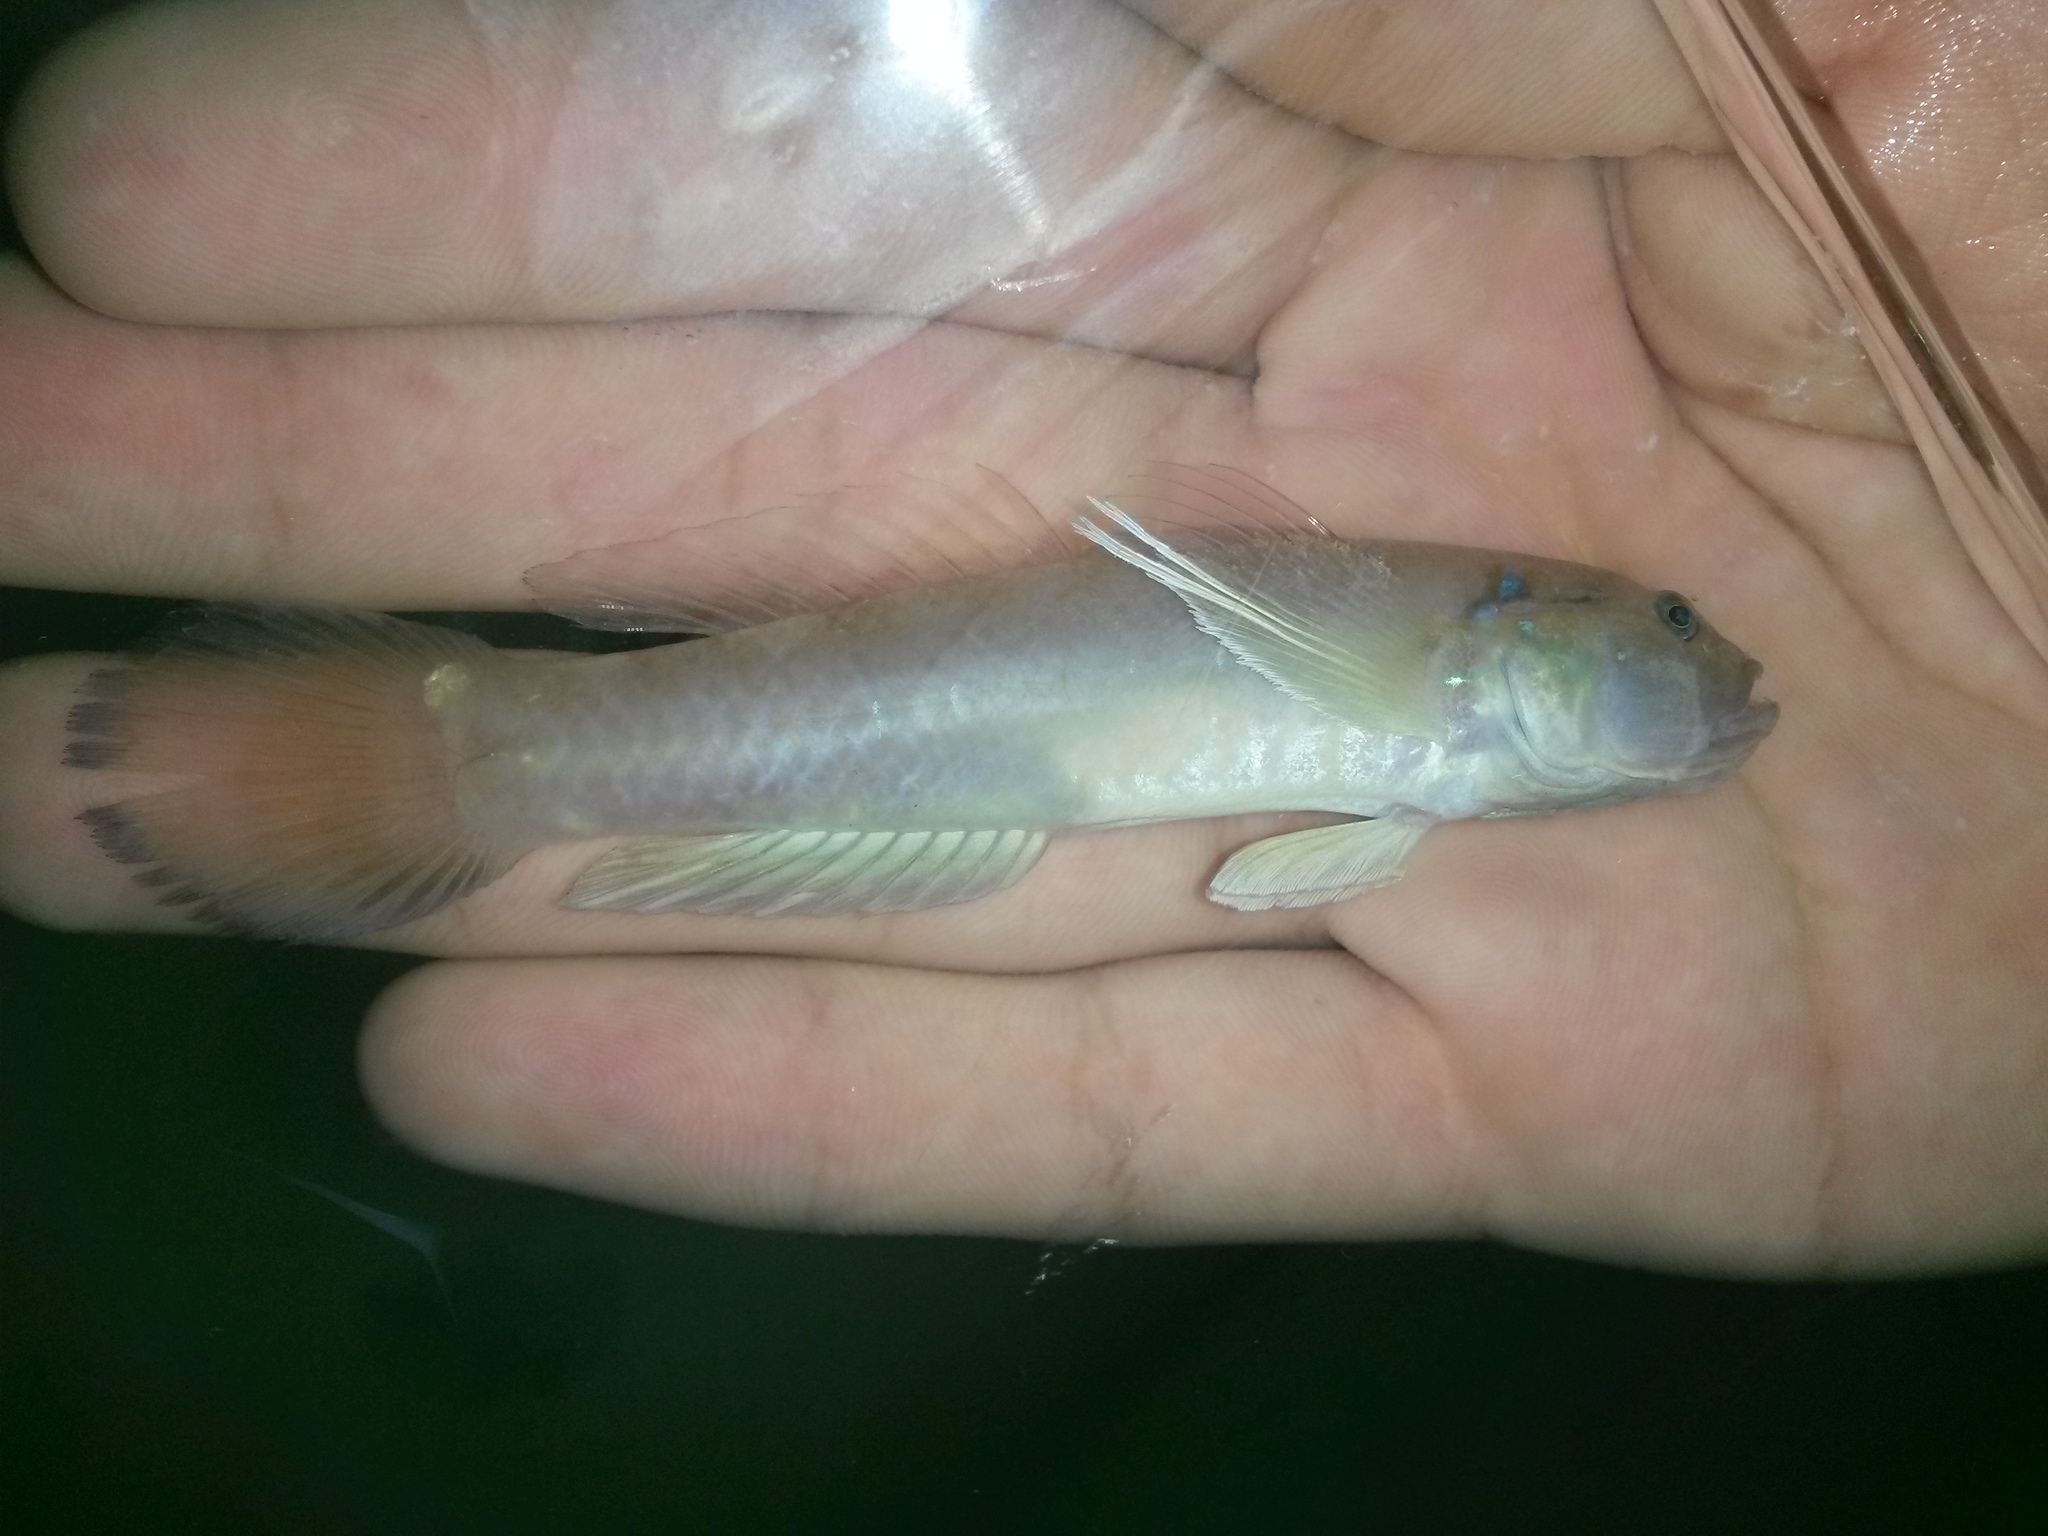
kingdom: Animalia
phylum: Chordata
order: Perciformes
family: Gobiidae
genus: Acentrogobius
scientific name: Acentrogobius dayi
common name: Day's goby
